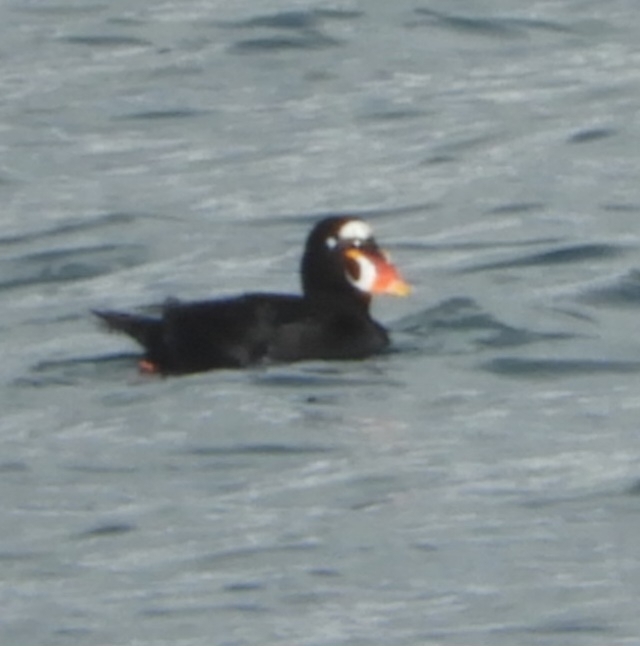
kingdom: Animalia
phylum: Chordata
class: Aves
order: Anseriformes
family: Anatidae
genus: Melanitta
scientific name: Melanitta perspicillata
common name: Surf scoter
